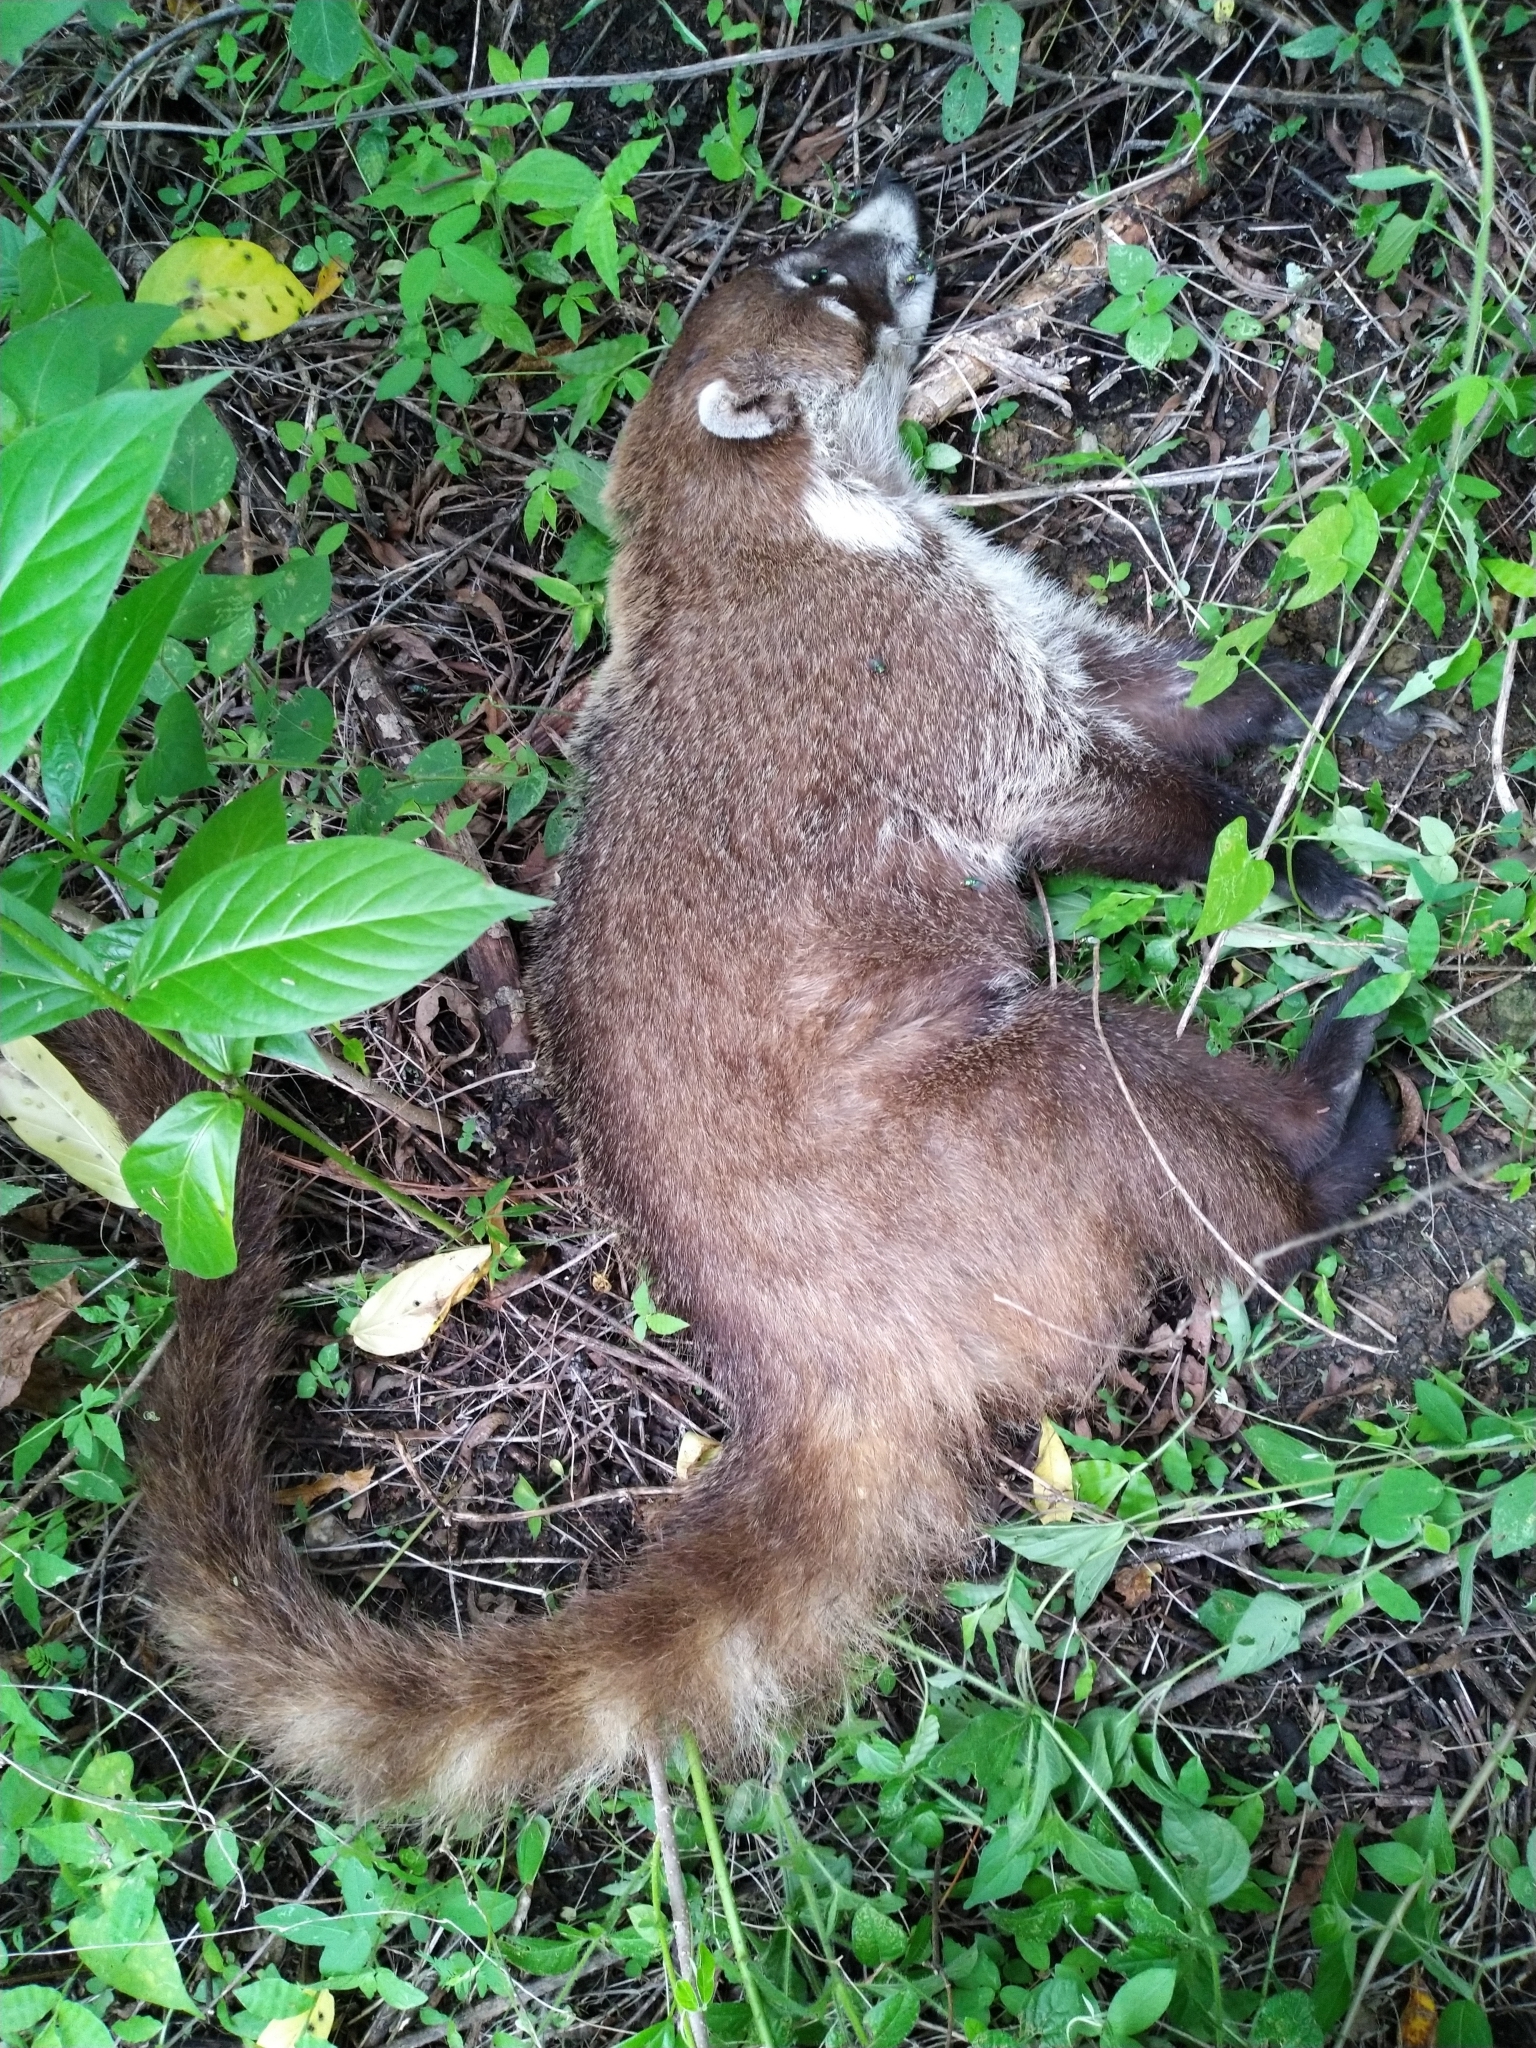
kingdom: Animalia
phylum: Chordata
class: Mammalia
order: Carnivora
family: Procyonidae
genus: Nasua
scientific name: Nasua narica
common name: White-nosed coati
